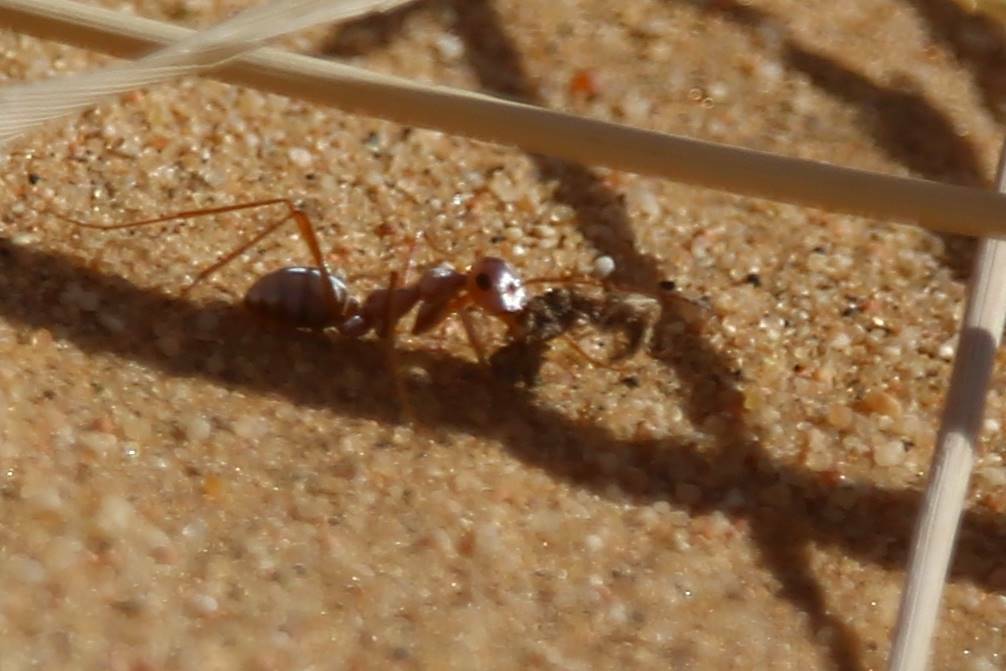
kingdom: Animalia
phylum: Arthropoda
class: Insecta
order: Hymenoptera
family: Formicidae
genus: Cataglyphis
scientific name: Cataglyphis bombycinus
